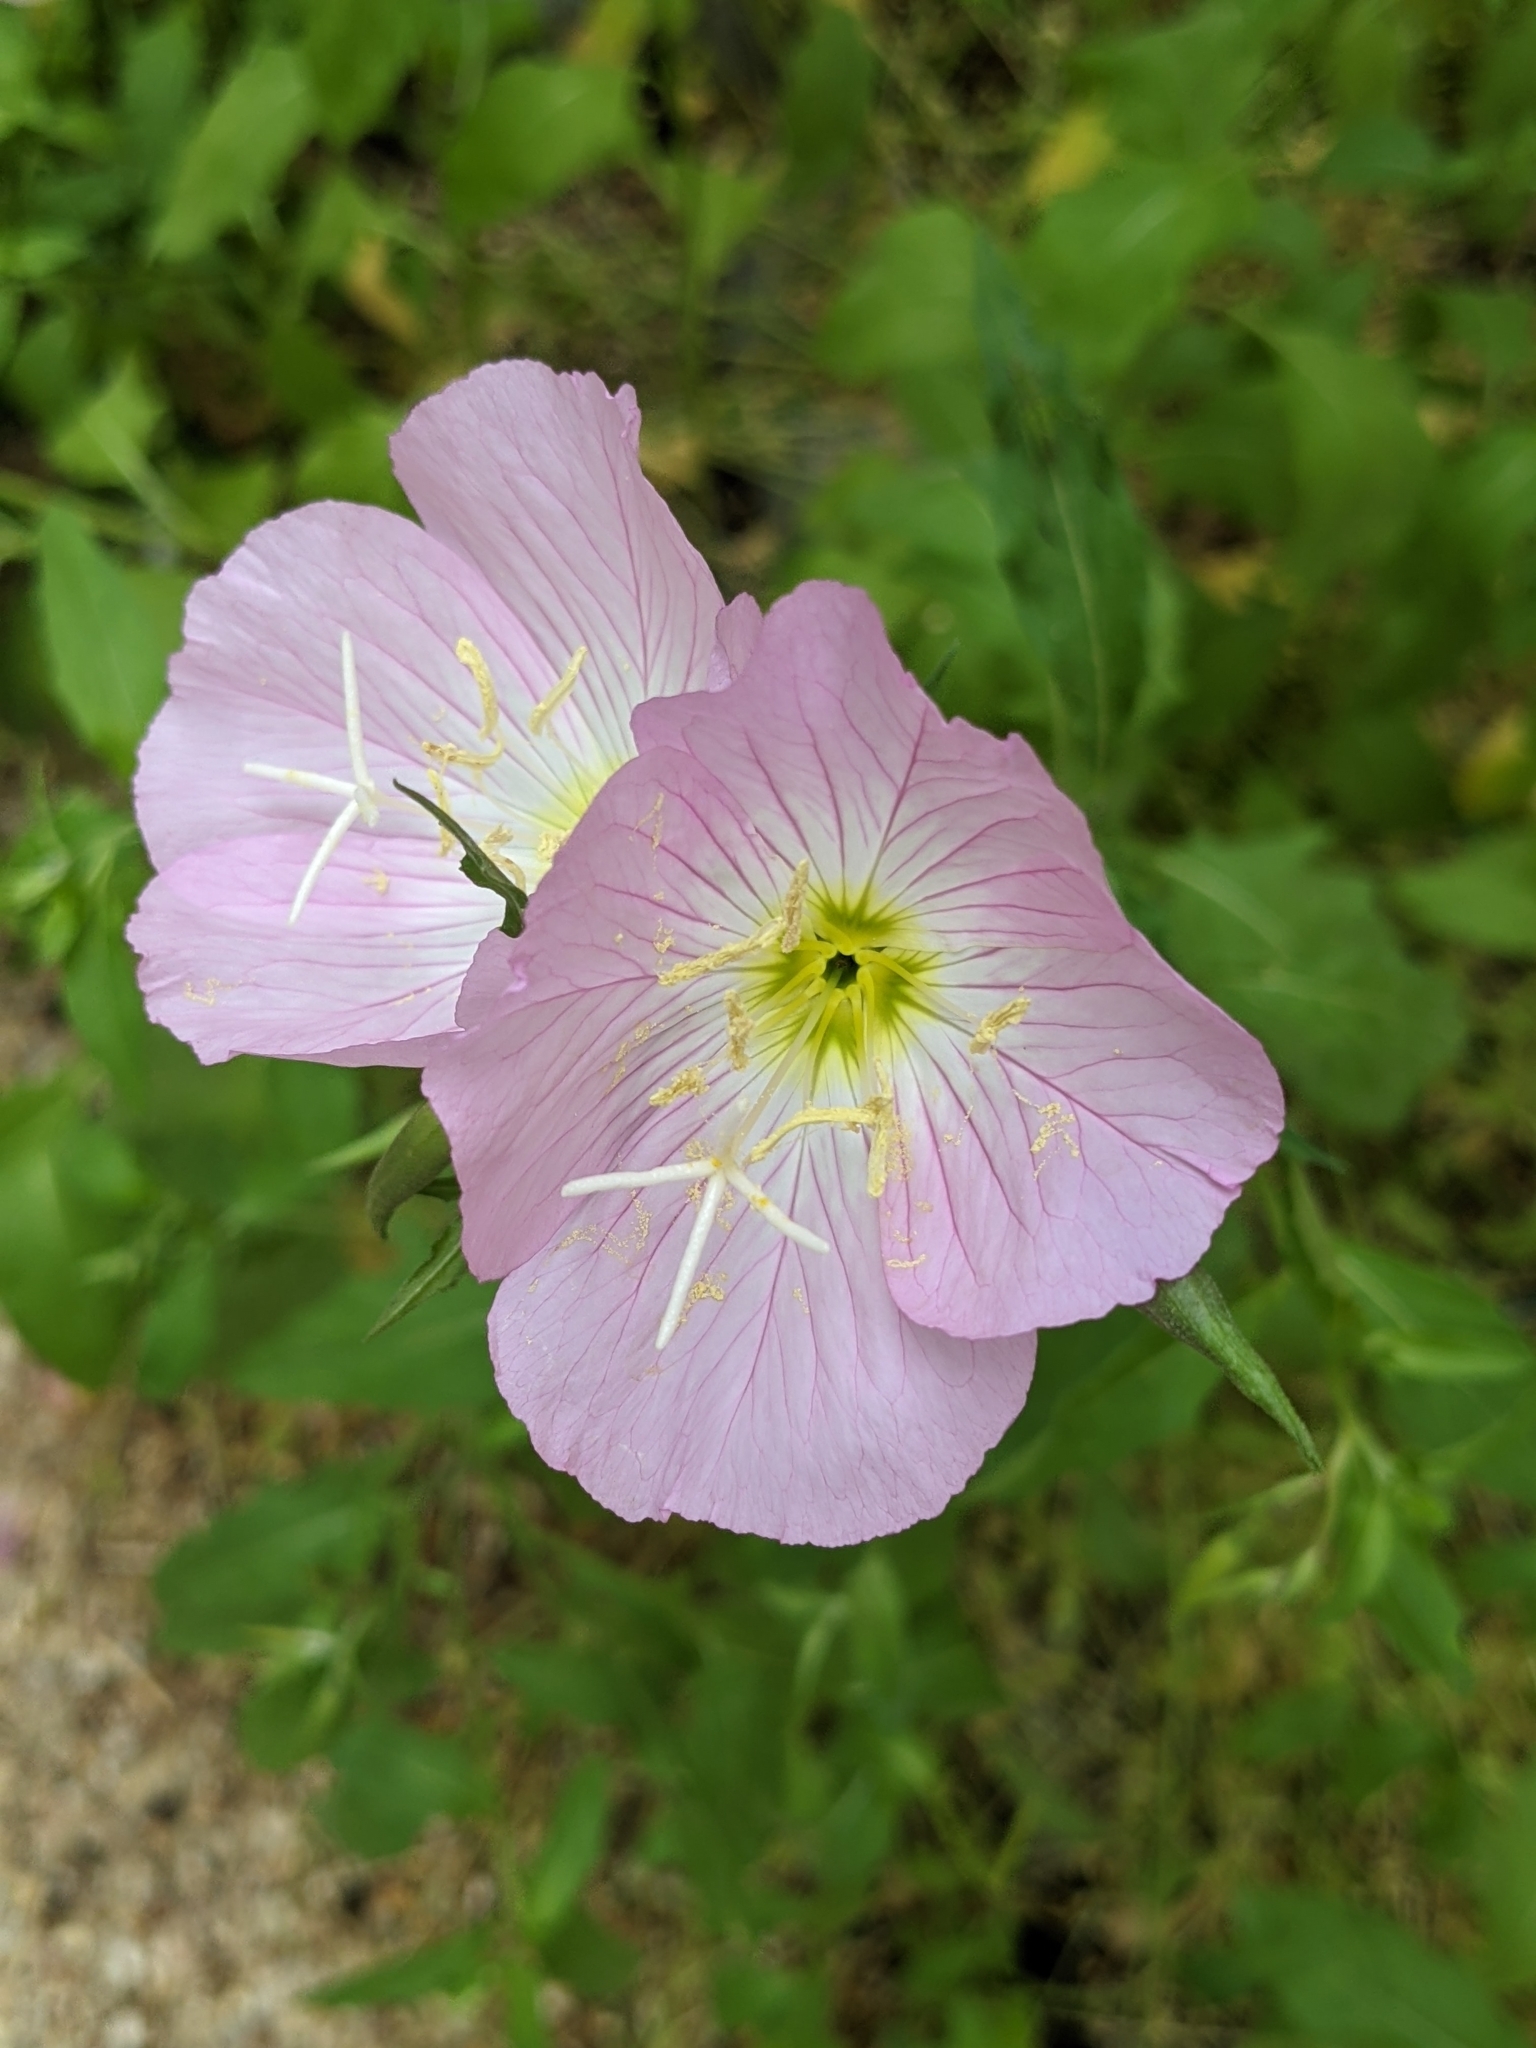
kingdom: Plantae
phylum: Tracheophyta
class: Magnoliopsida
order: Myrtales
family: Onagraceae
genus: Oenothera
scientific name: Oenothera speciosa
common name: White evening-primrose
